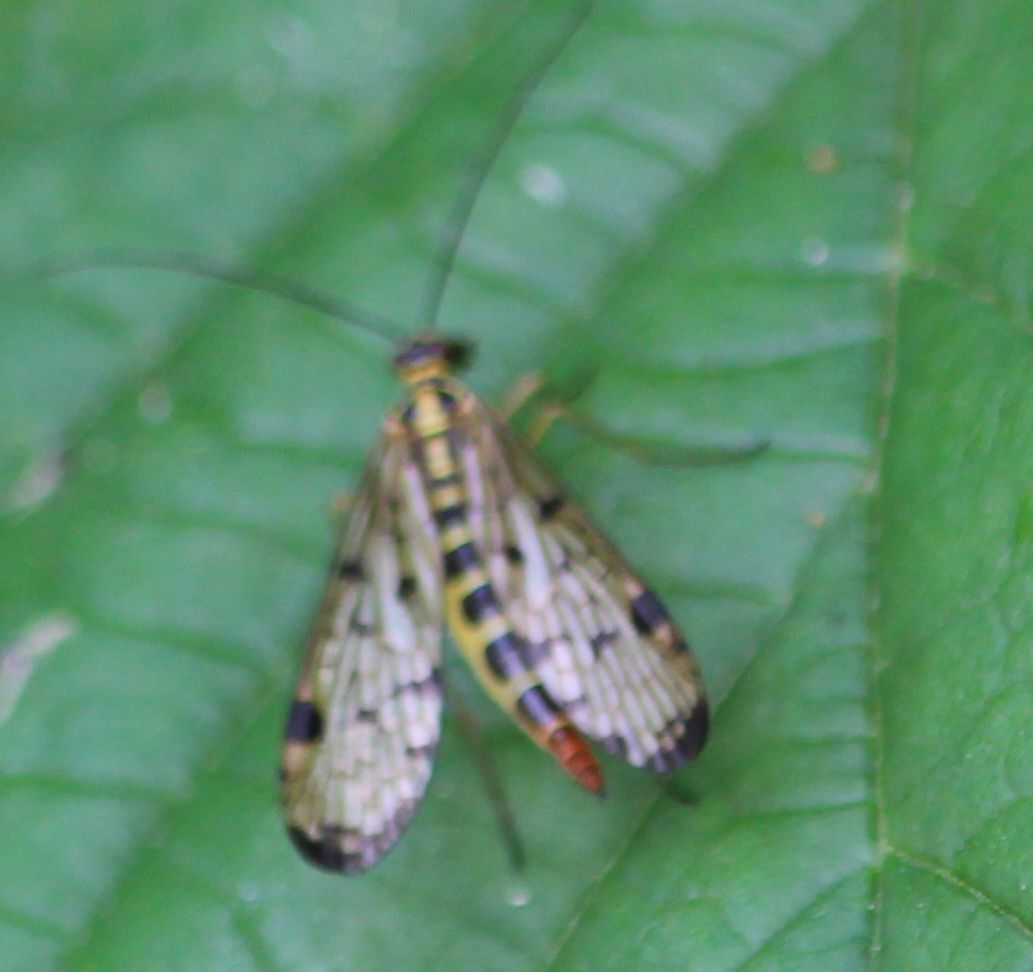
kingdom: Animalia
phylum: Arthropoda
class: Insecta
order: Mecoptera
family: Panorpidae
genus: Panorpa
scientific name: Panorpa germanica
